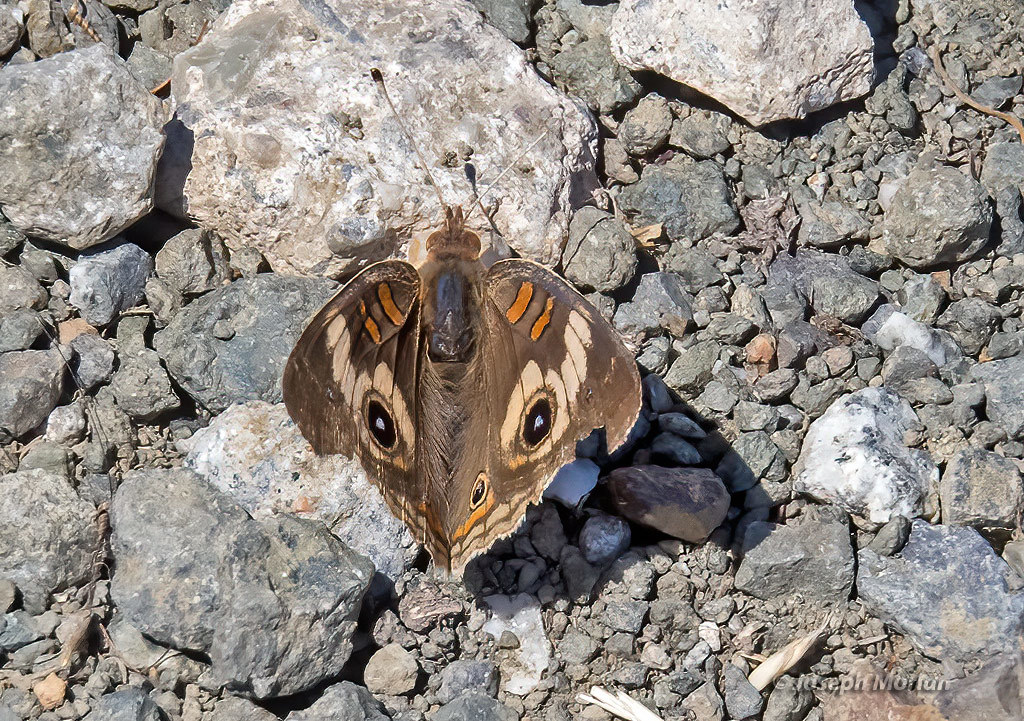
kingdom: Animalia
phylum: Arthropoda
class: Insecta
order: Lepidoptera
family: Nymphalidae
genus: Junonia
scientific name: Junonia grisea
